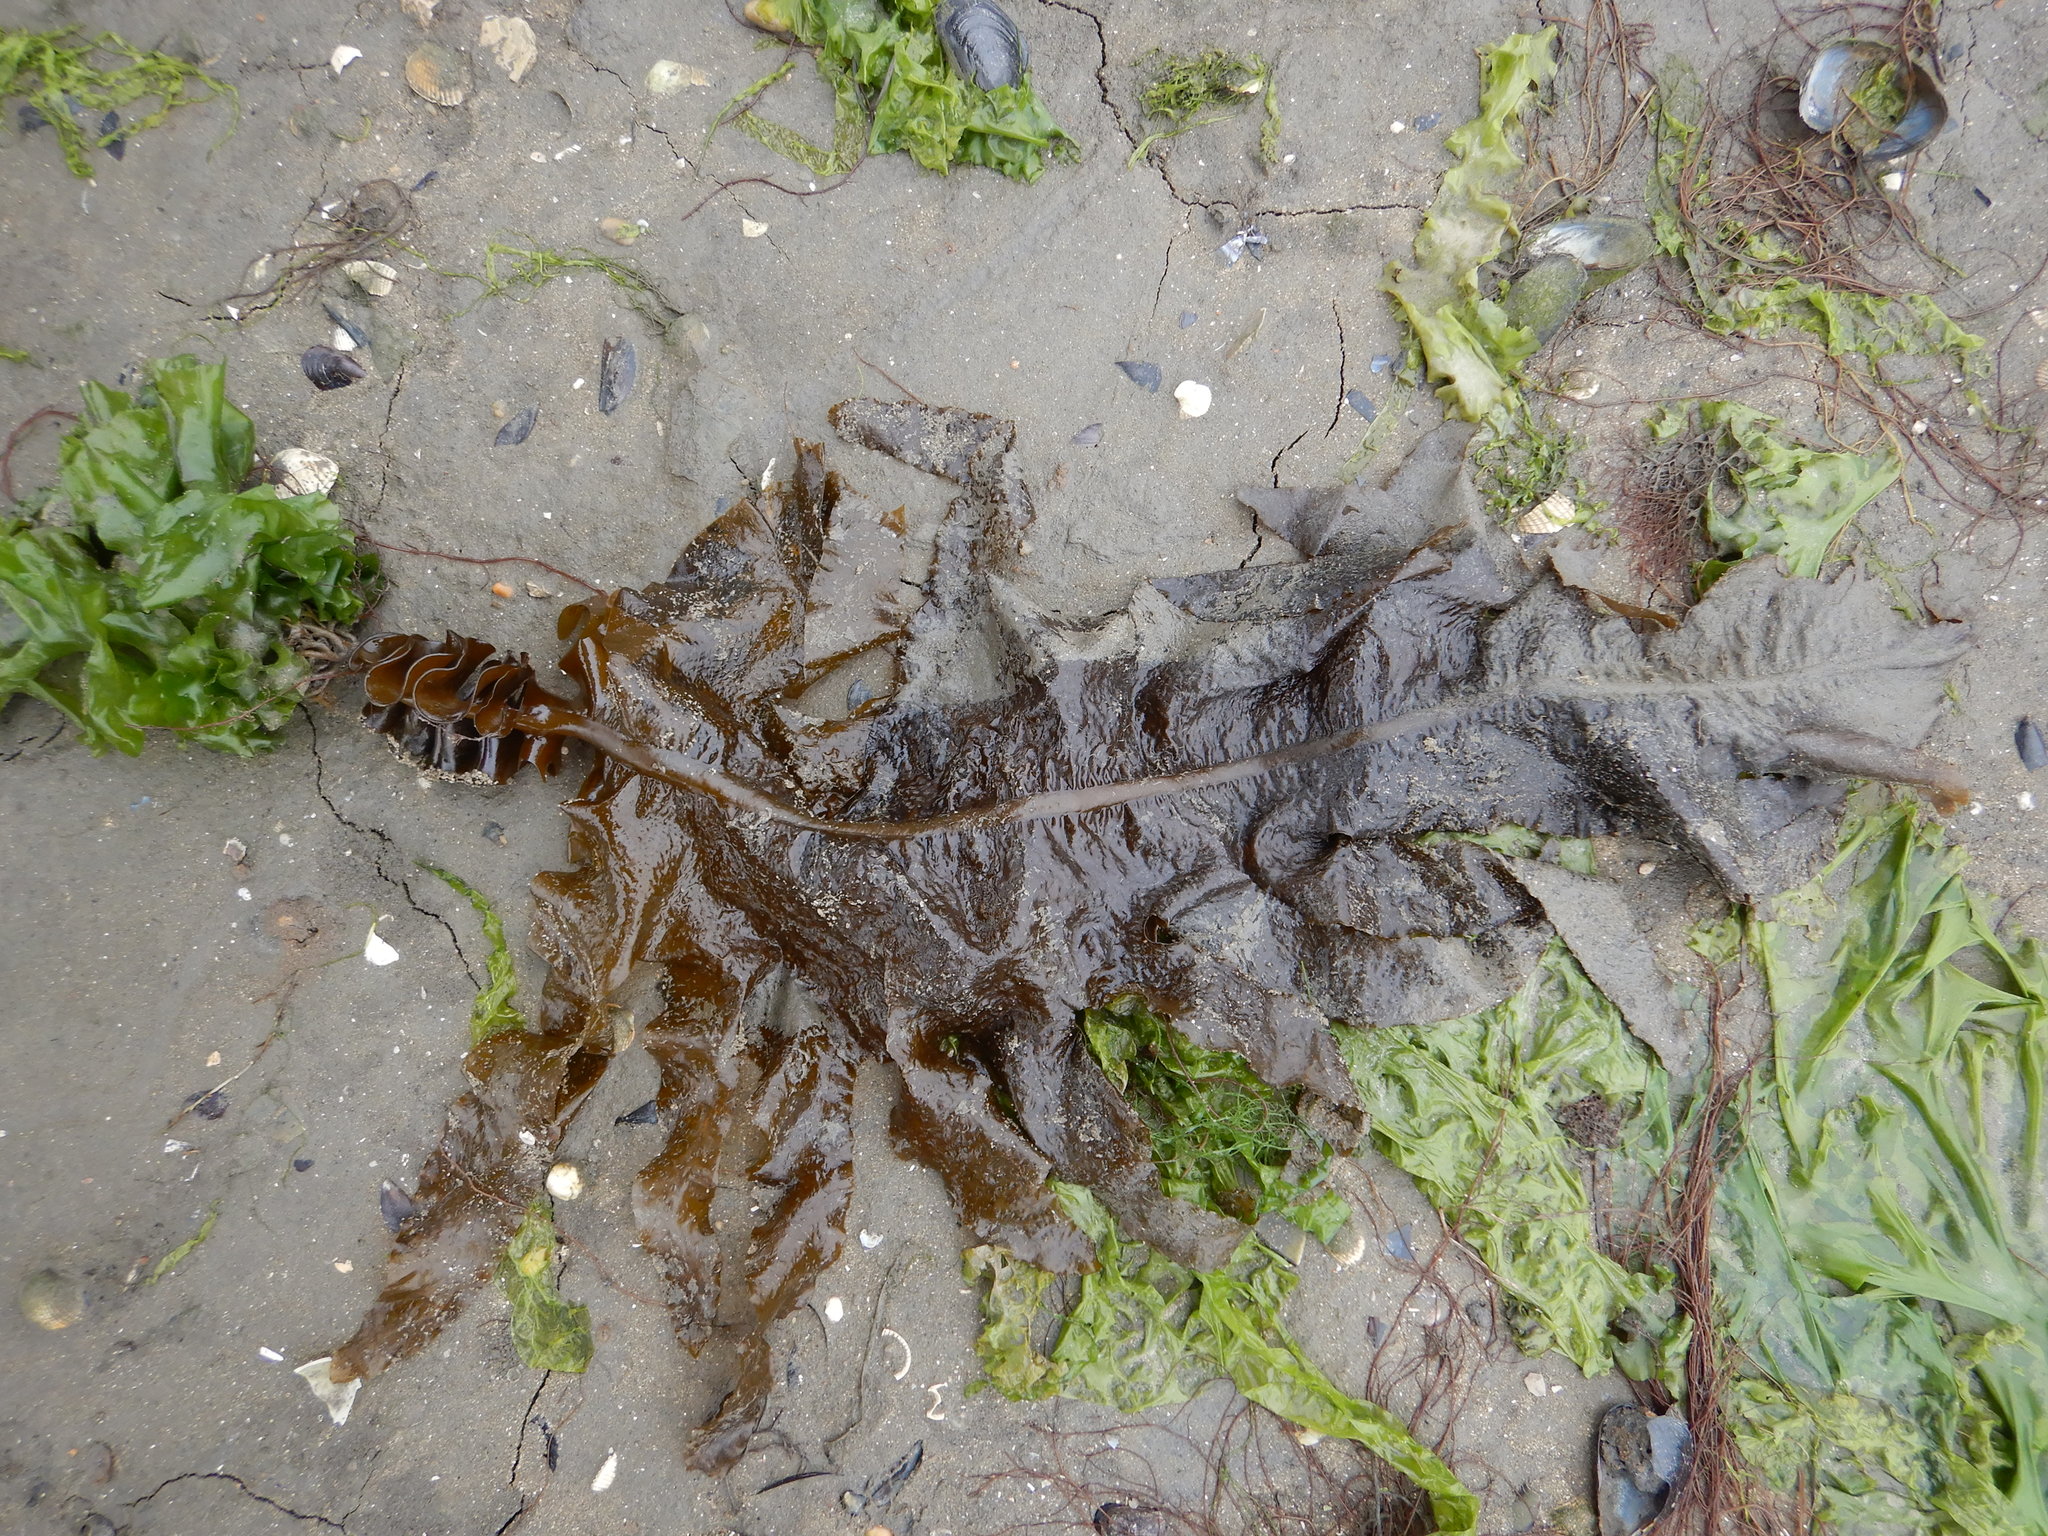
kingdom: Chromista
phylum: Ochrophyta
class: Phaeophyceae
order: Laminariales
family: Alariaceae
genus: Undaria
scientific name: Undaria pinnatifida
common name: Asian kelp
